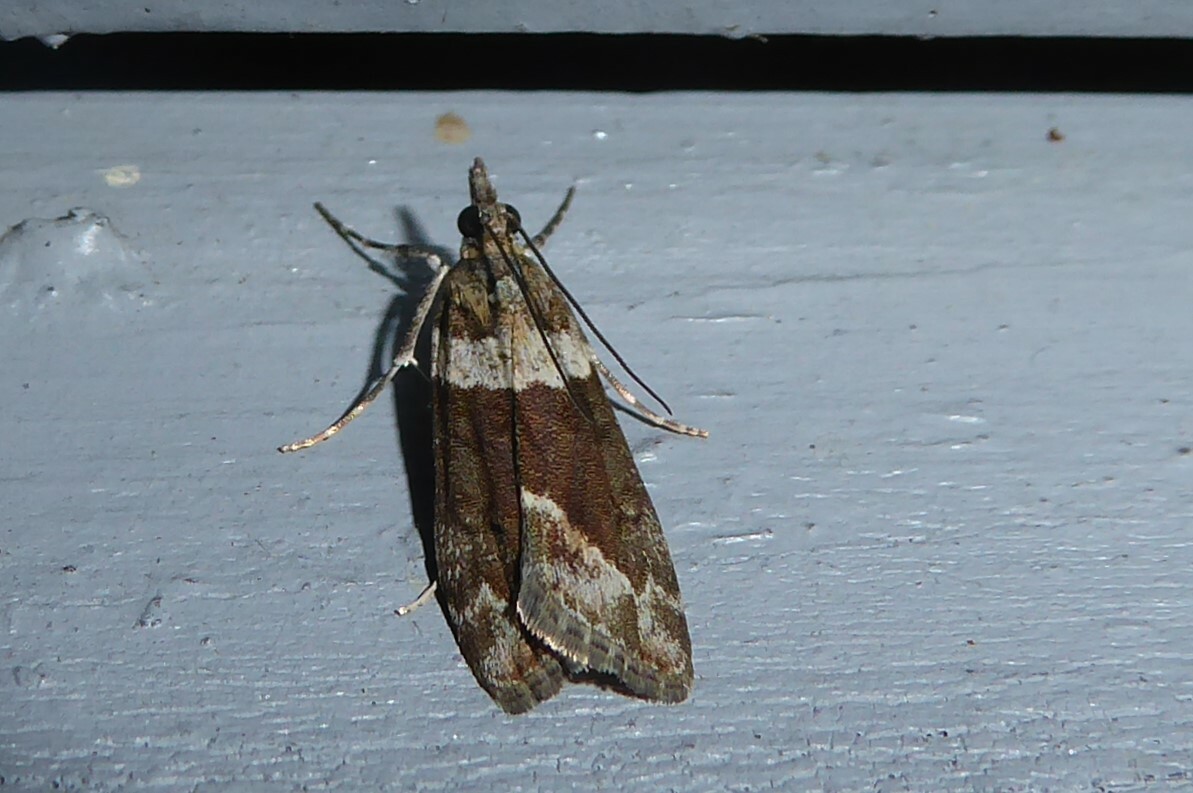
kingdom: Animalia
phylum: Arthropoda
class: Insecta
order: Lepidoptera
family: Crambidae
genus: Eudonia
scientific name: Eudonia submarginalis
